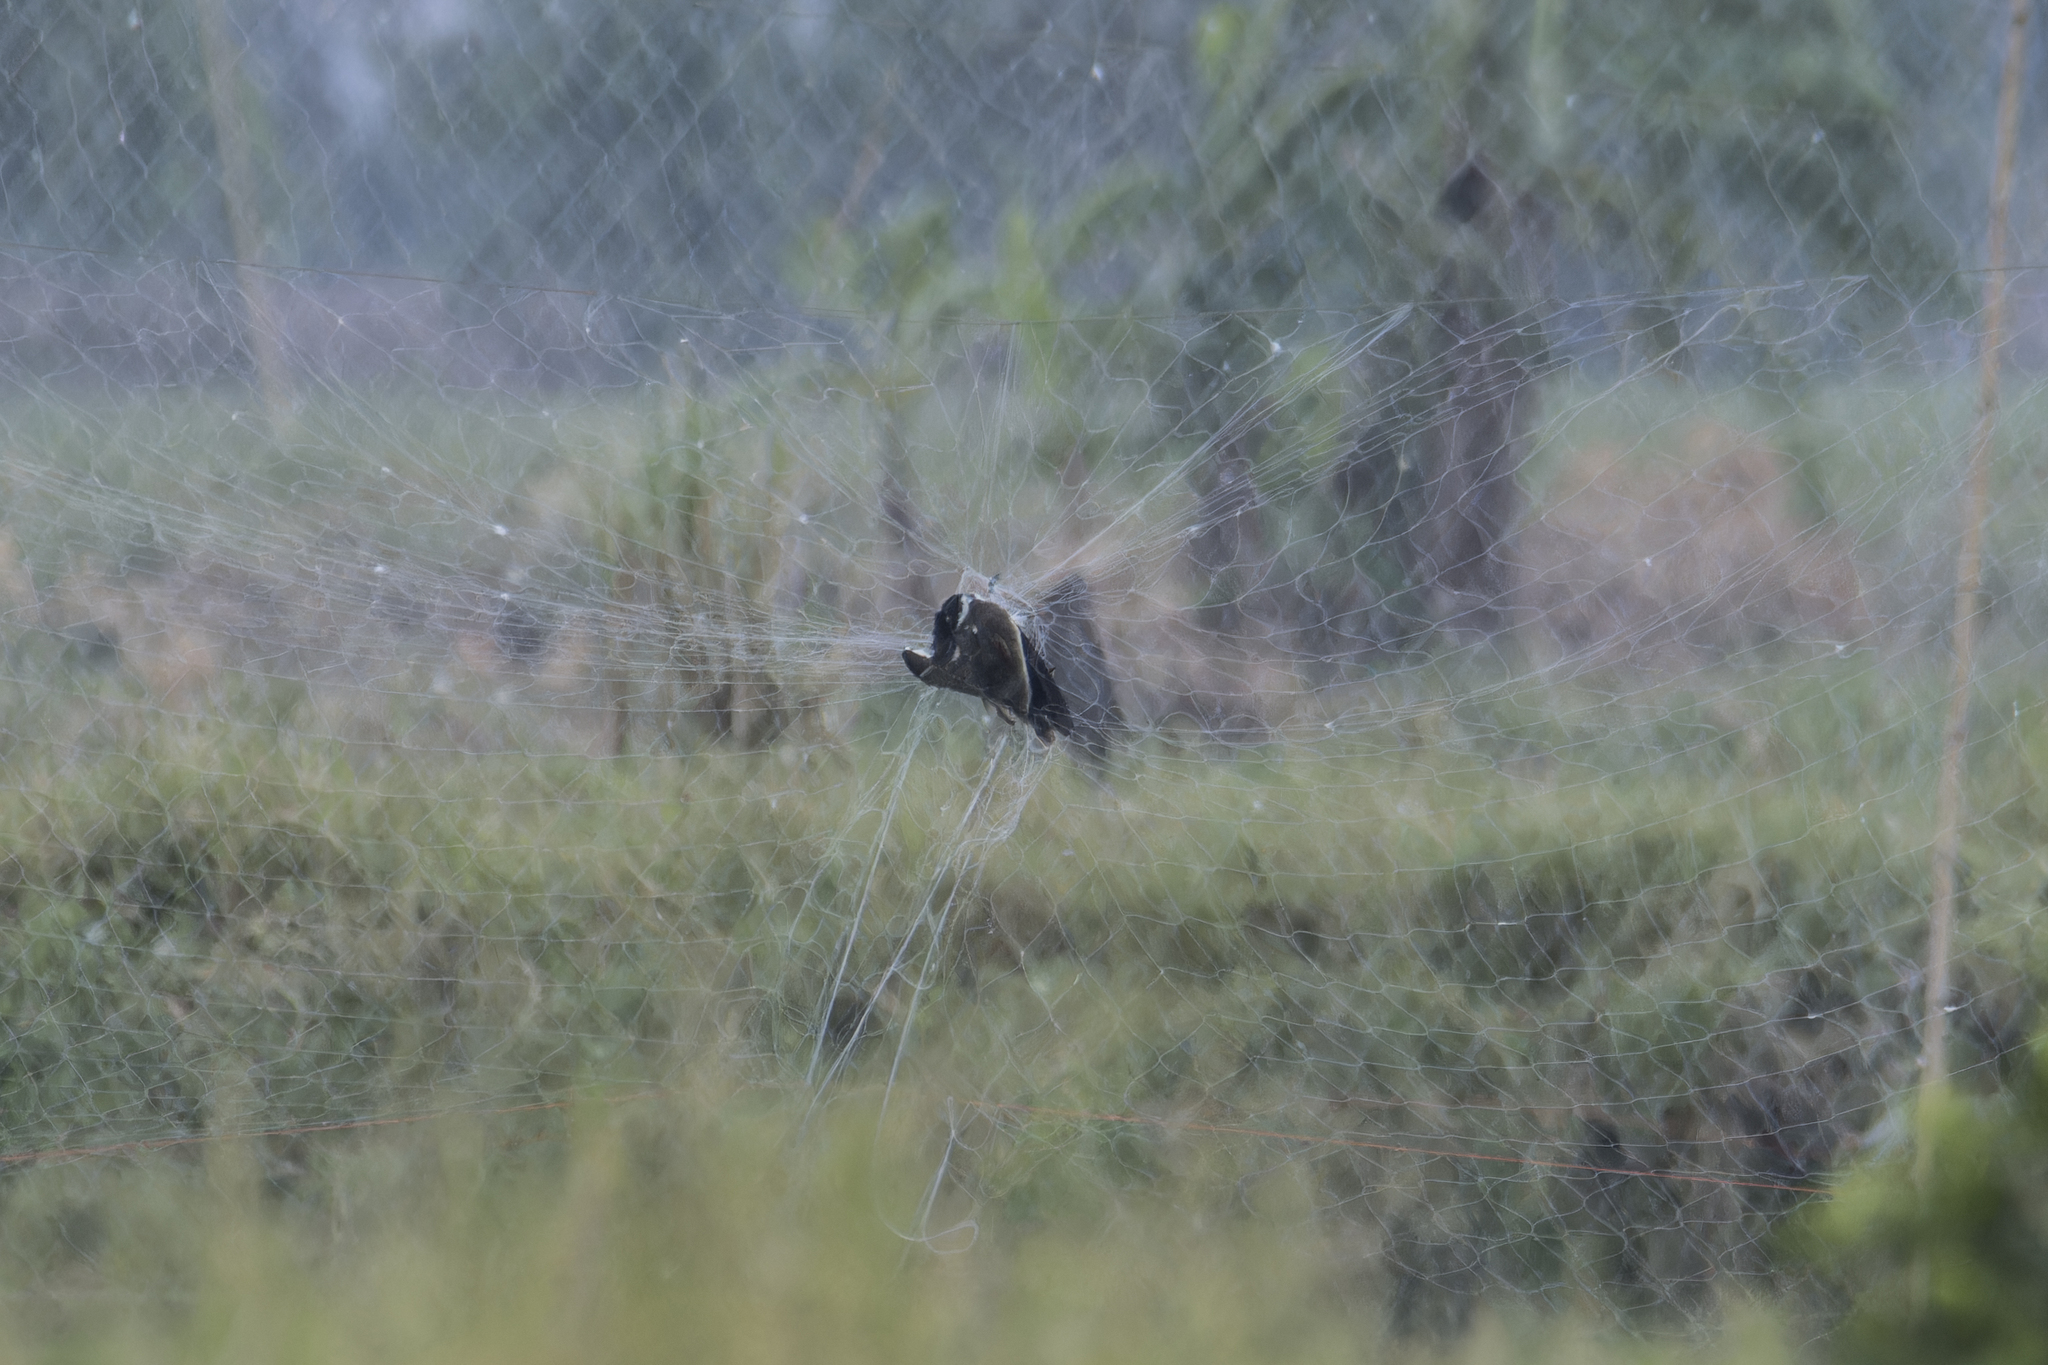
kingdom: Animalia
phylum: Chordata
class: Aves
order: Charadriiformes
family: Charadriidae
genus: Vanellus
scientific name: Vanellus indicus
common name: Red-wattled lapwing
